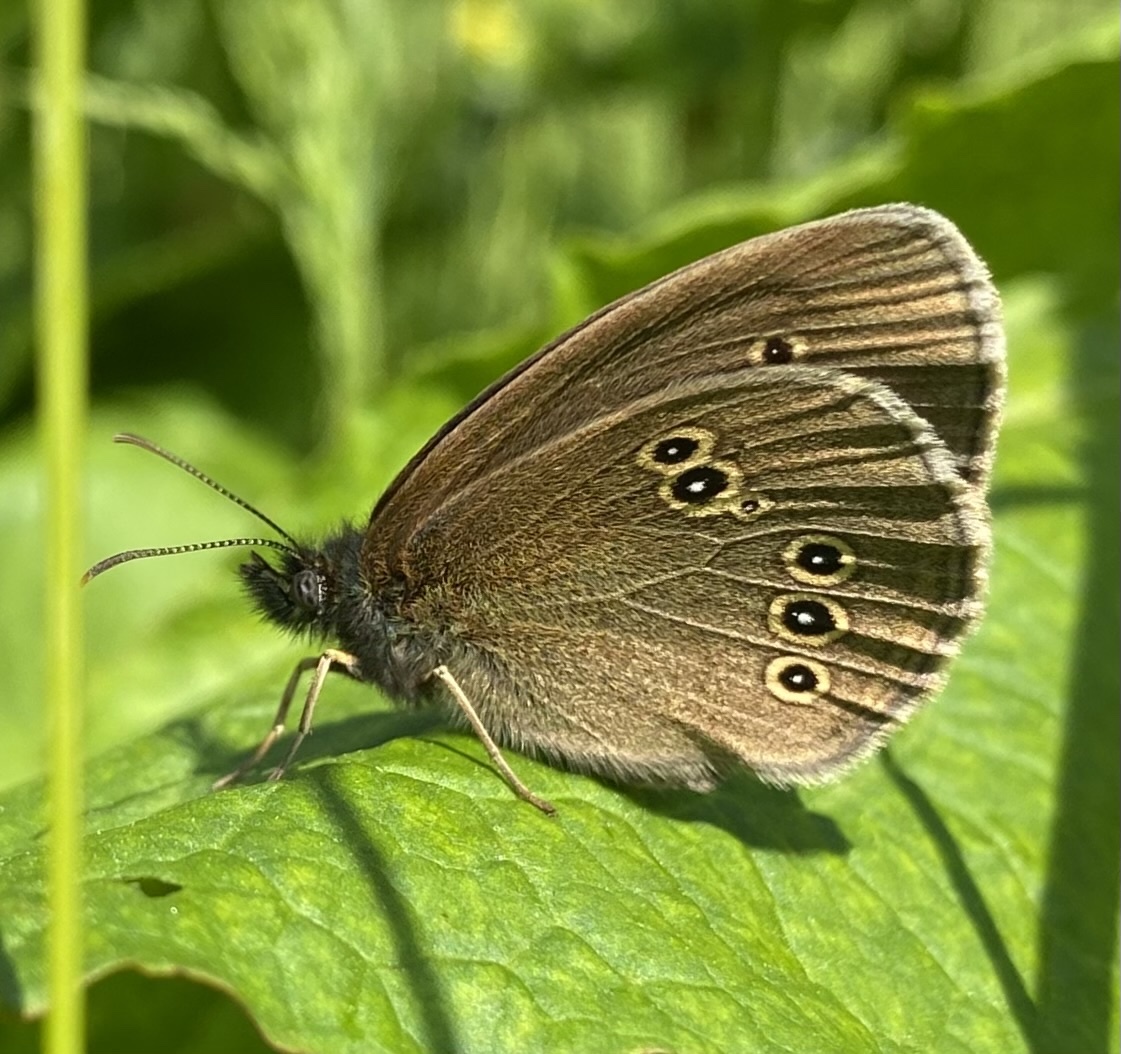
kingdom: Animalia
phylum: Arthropoda
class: Insecta
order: Lepidoptera
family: Nymphalidae
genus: Aphantopus
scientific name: Aphantopus hyperantus
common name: Ringlet
